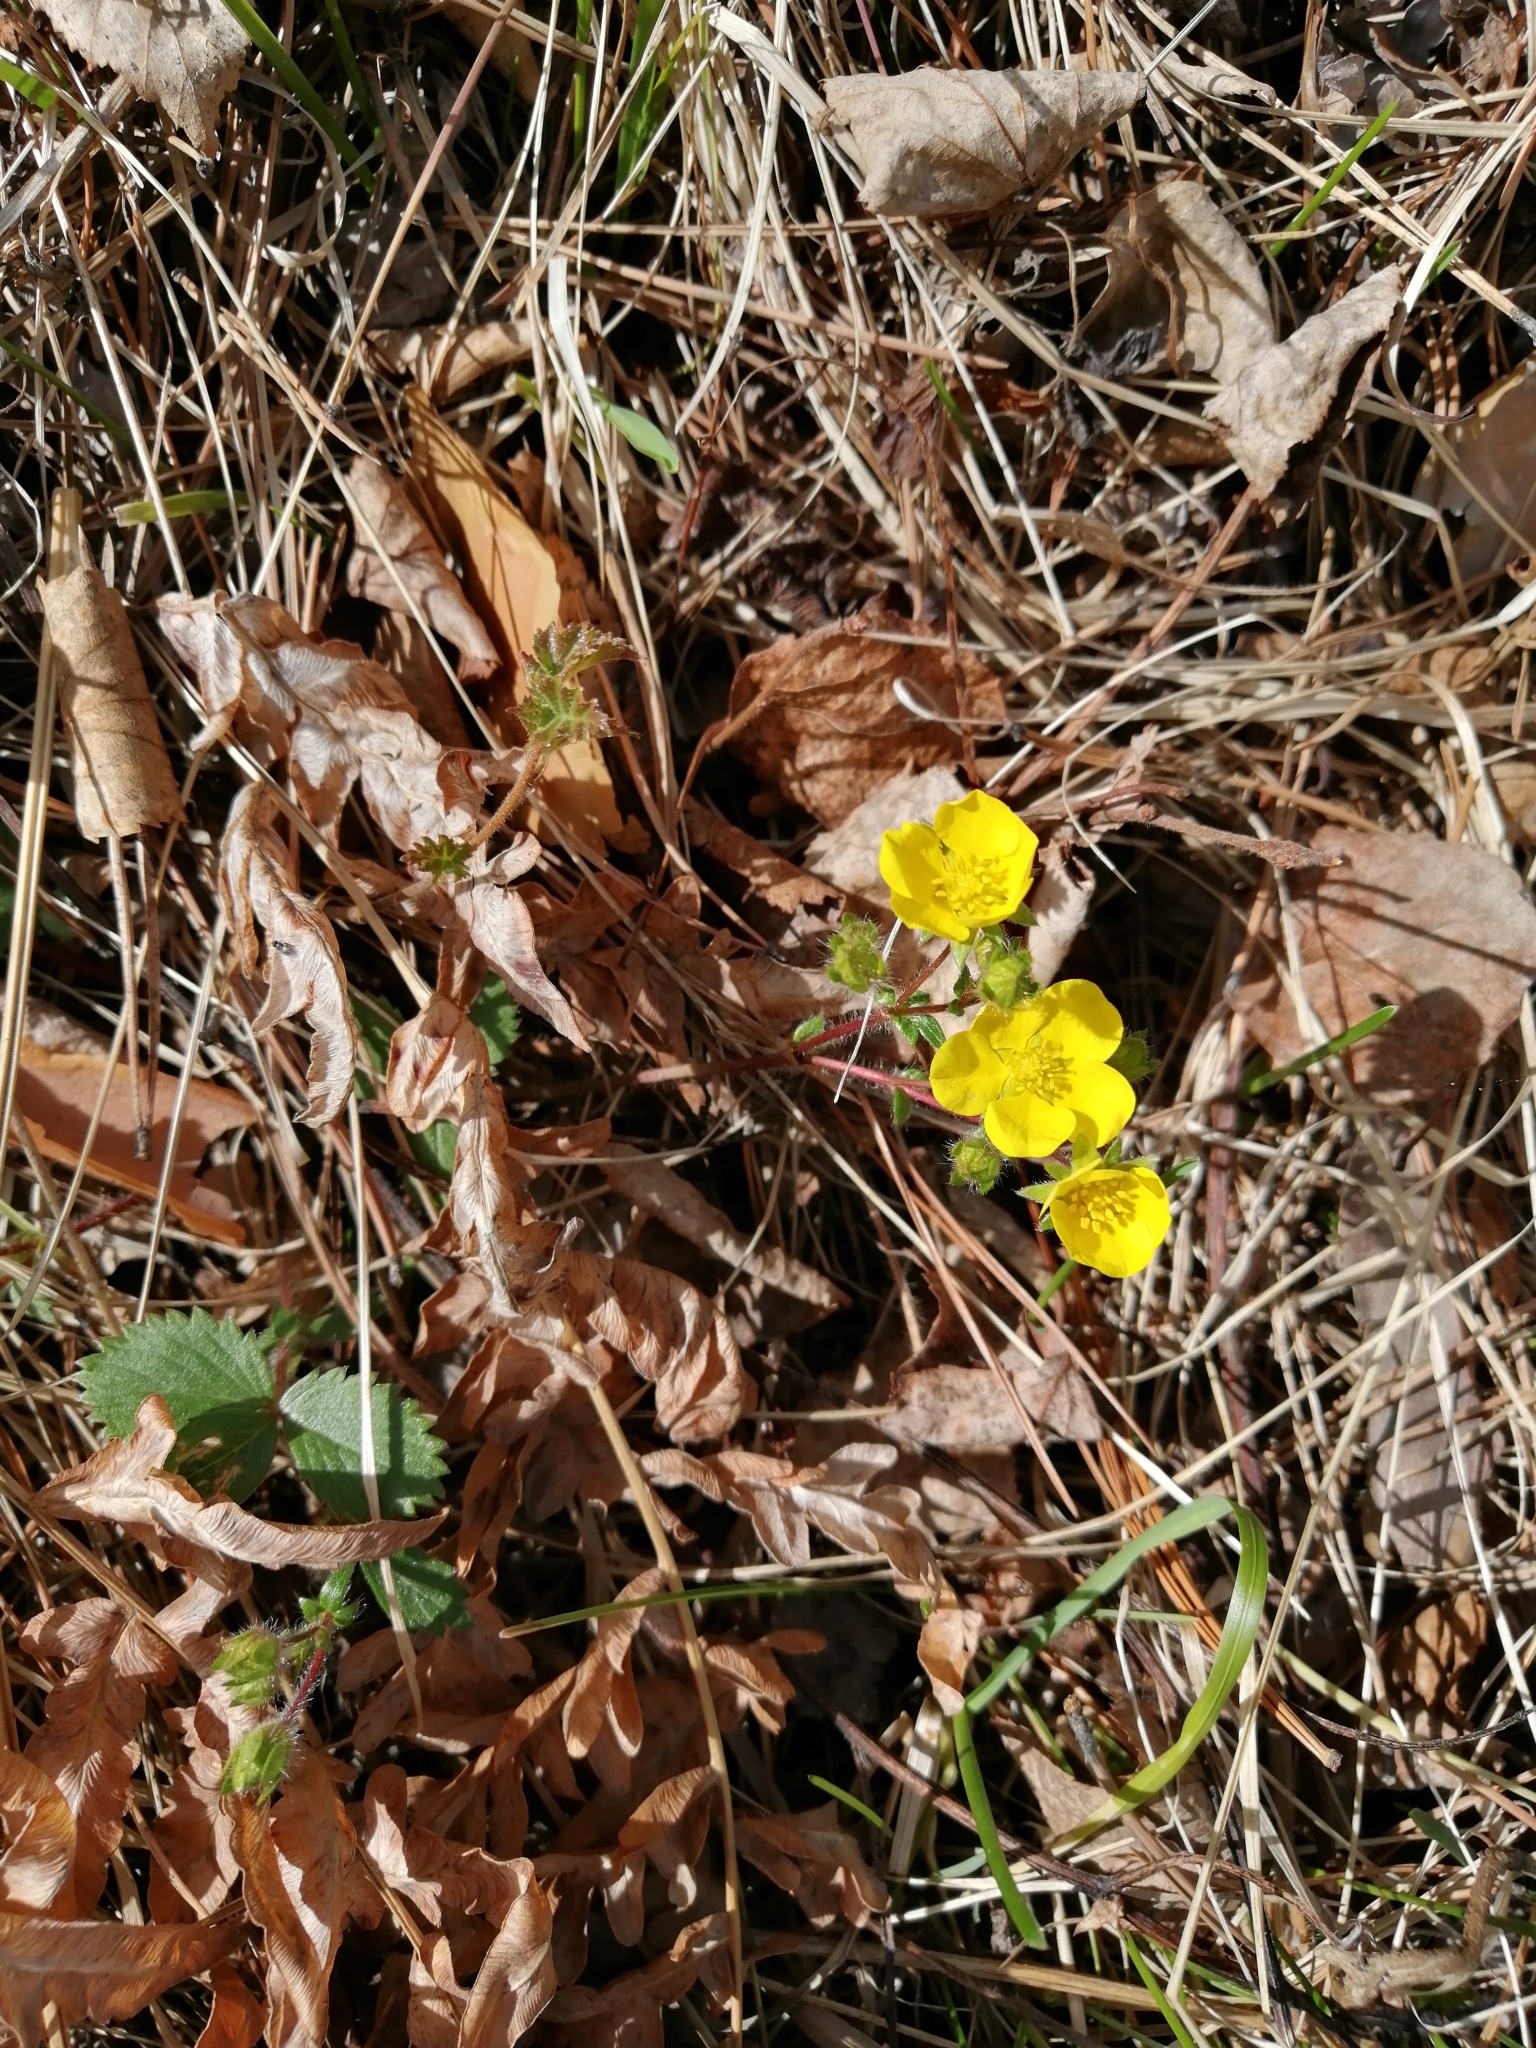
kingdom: Plantae
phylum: Tracheophyta
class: Magnoliopsida
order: Rosales
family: Rosaceae
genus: Potentilla
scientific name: Potentilla fragarioides
